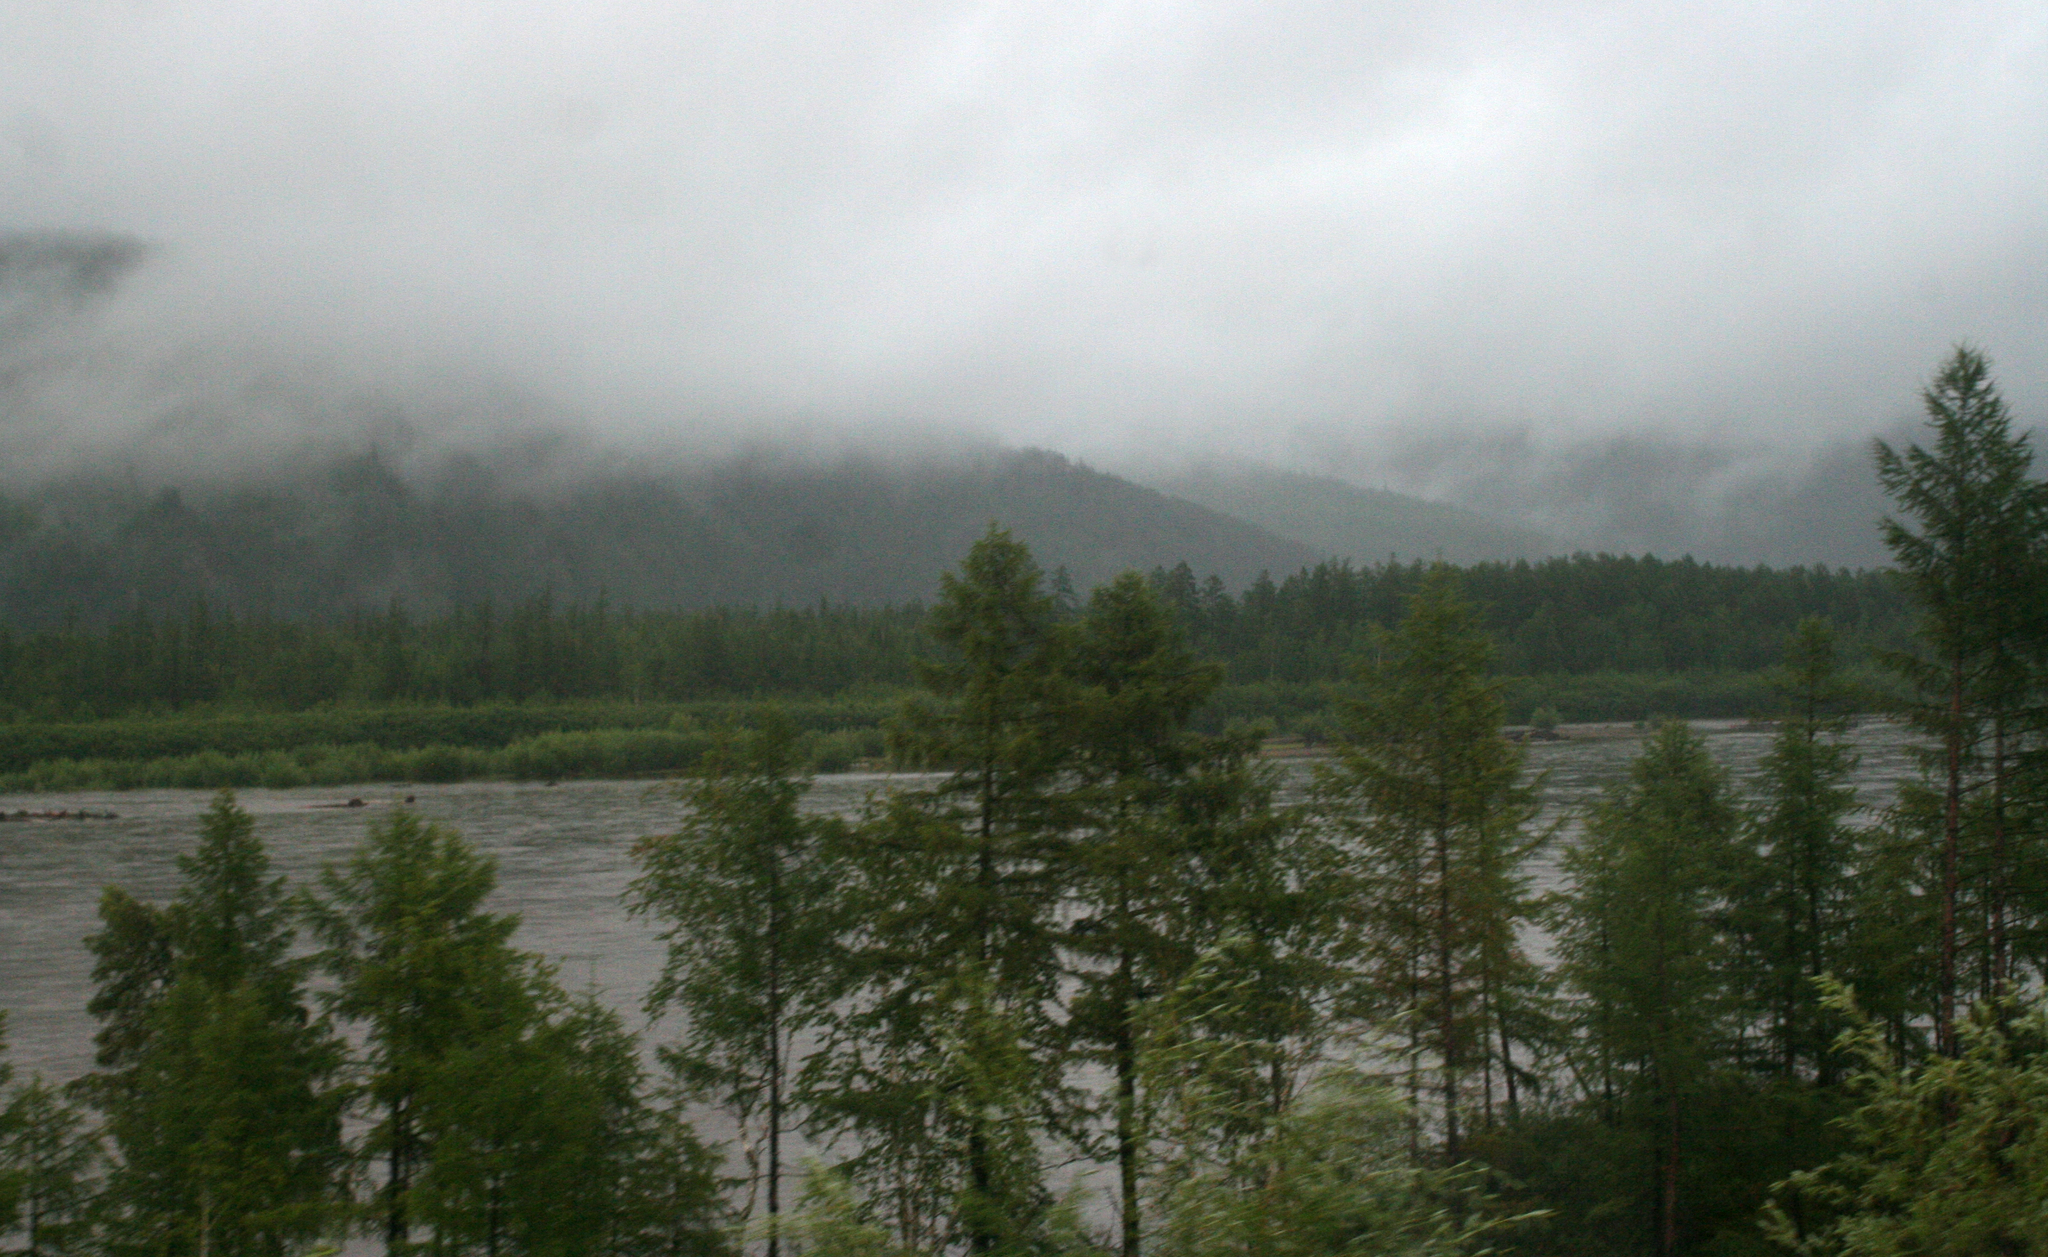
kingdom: Plantae
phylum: Tracheophyta
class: Pinopsida
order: Pinales
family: Pinaceae
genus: Larix
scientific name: Larix gmelinii
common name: Dahurian larch
